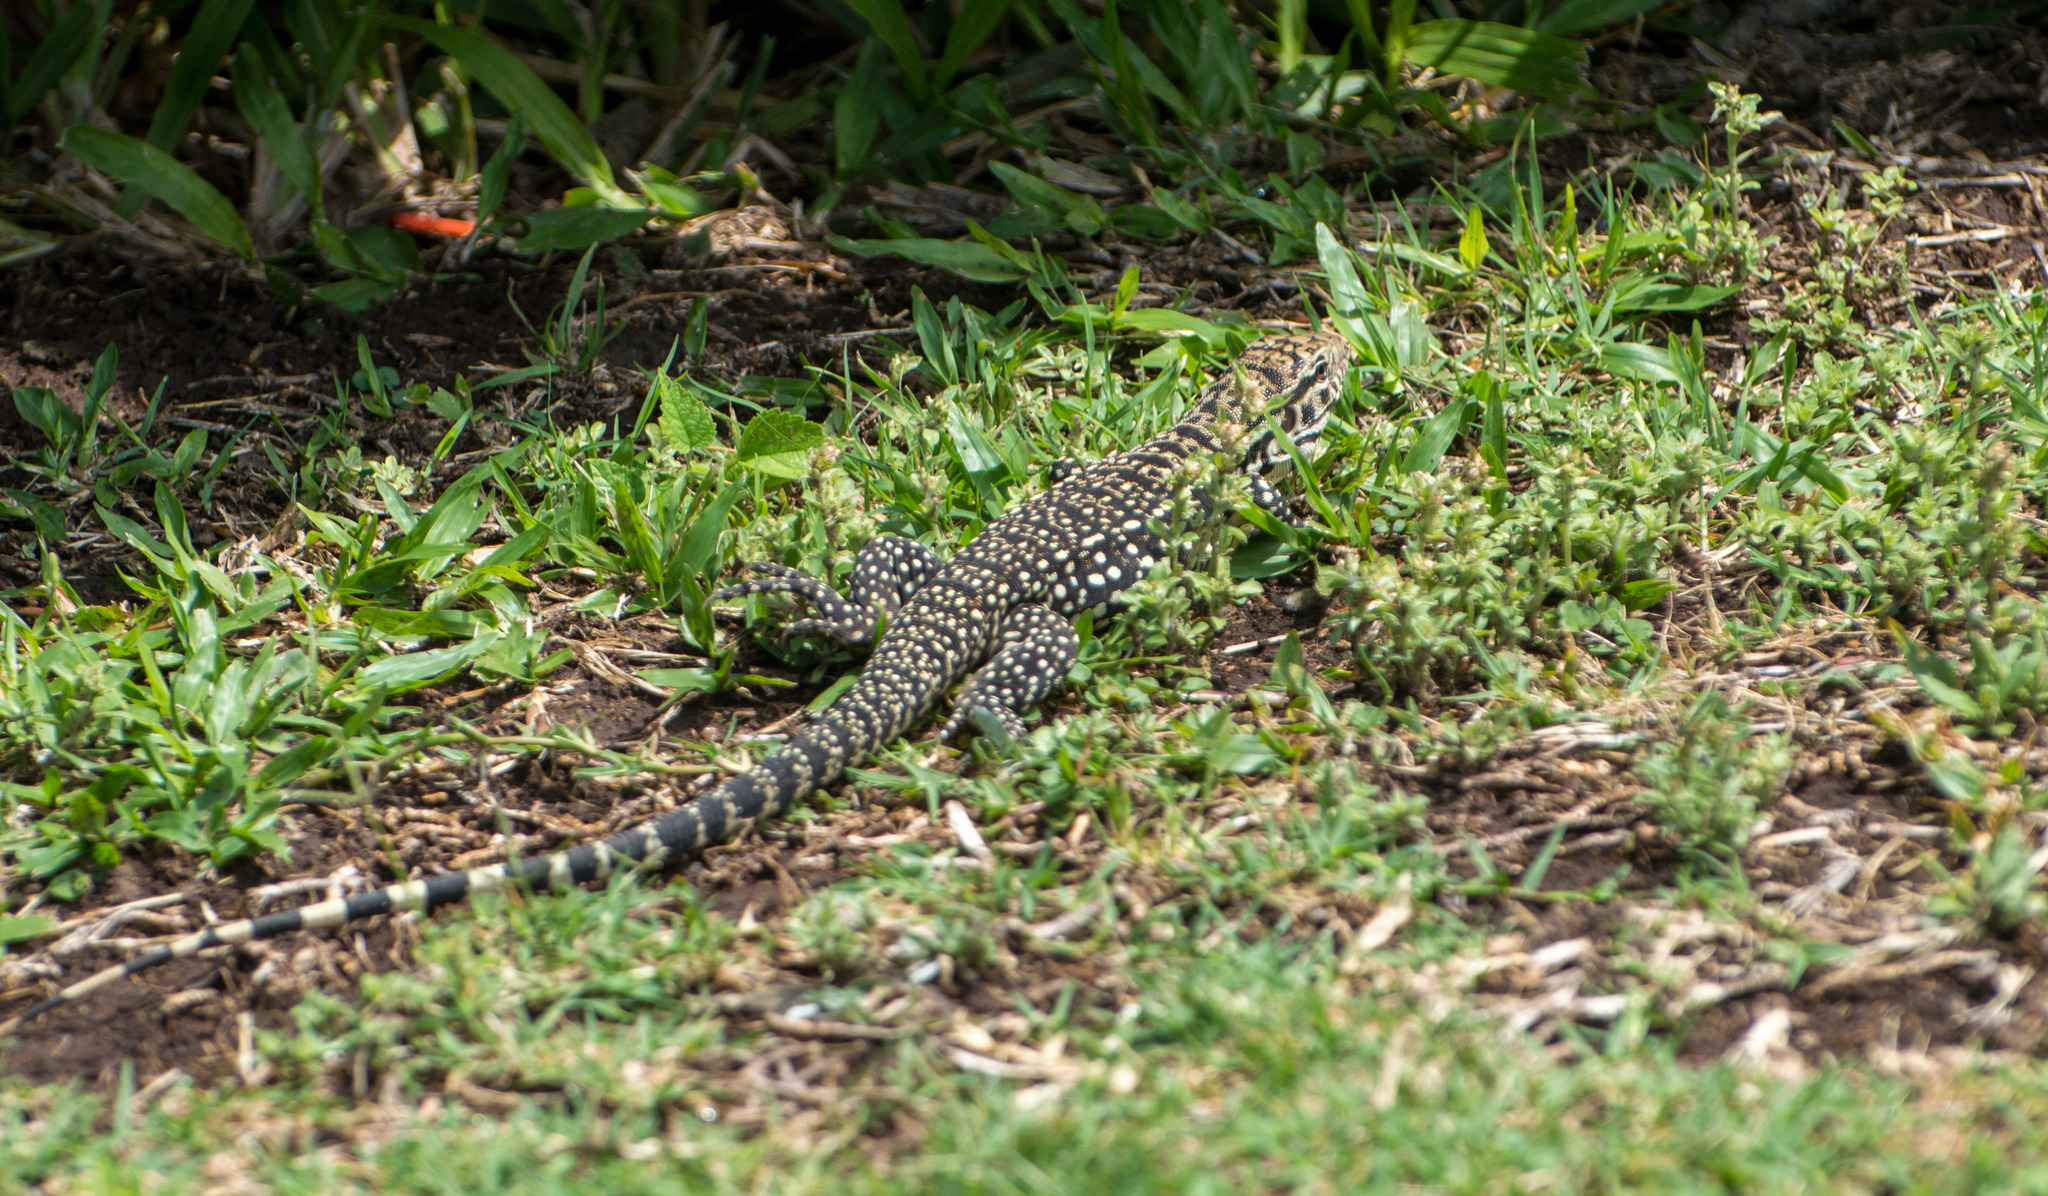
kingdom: Animalia
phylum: Chordata
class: Squamata
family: Teiidae
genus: Salvator
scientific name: Salvator merianae
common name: Argentine black and white tegu
